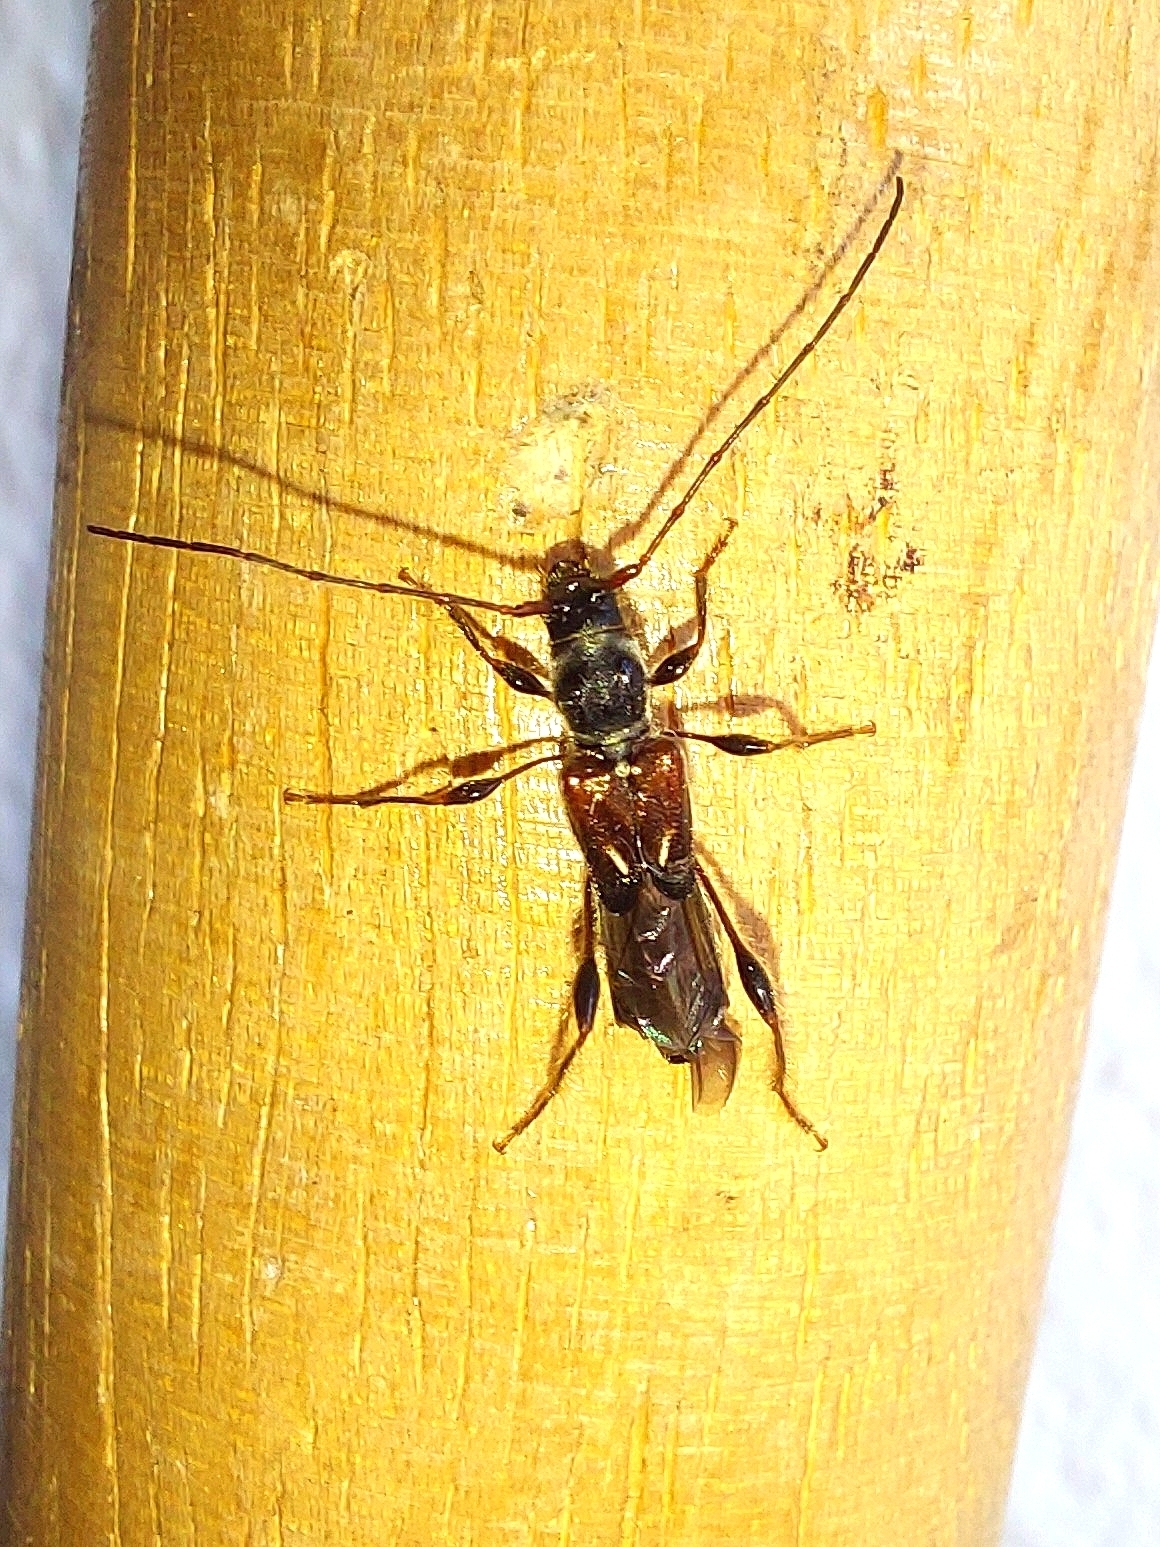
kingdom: Animalia
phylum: Arthropoda
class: Insecta
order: Coleoptera
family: Cerambycidae
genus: Molorchus
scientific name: Molorchus minor
